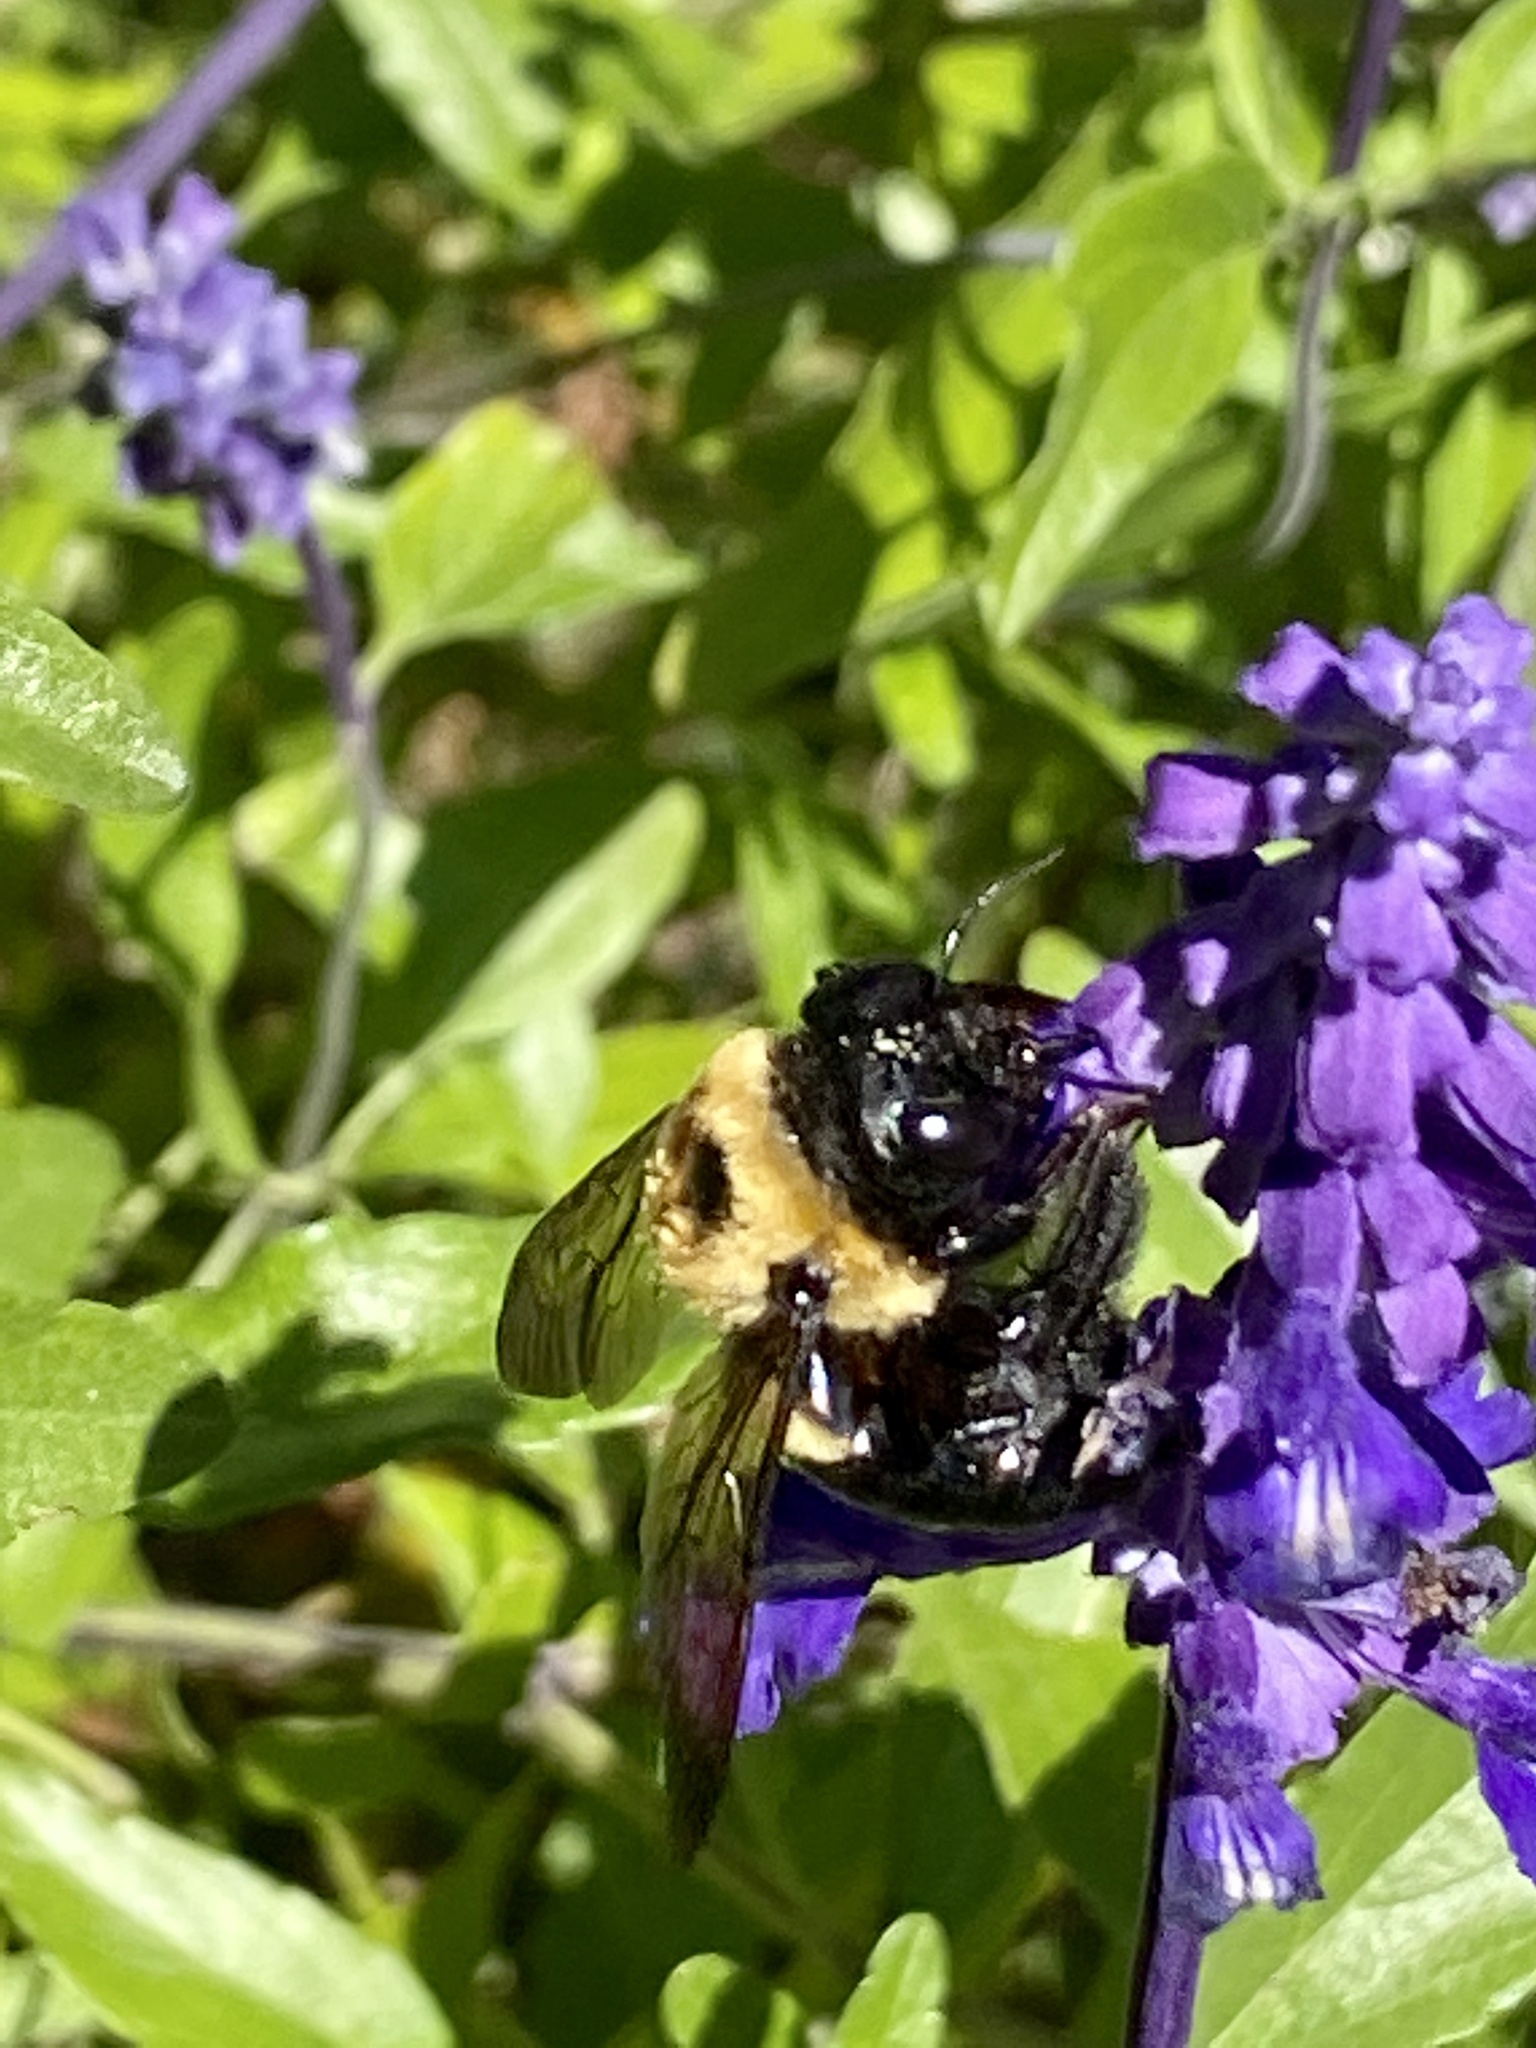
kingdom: Animalia
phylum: Arthropoda
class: Insecta
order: Hymenoptera
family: Apidae
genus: Xylocopa
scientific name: Xylocopa virginica
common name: Carpenter bee
